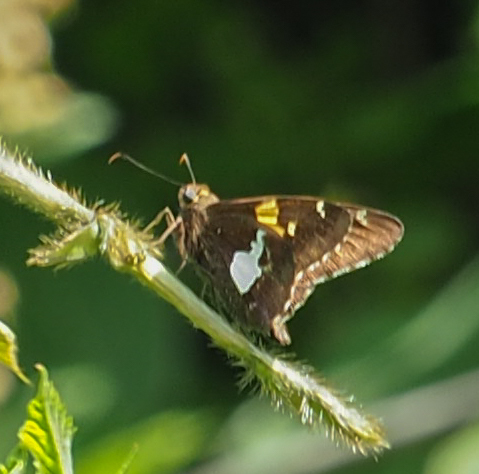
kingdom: Animalia
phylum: Arthropoda
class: Insecta
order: Lepidoptera
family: Hesperiidae
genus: Epargyreus
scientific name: Epargyreus clarus
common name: Silver-spotted skipper
